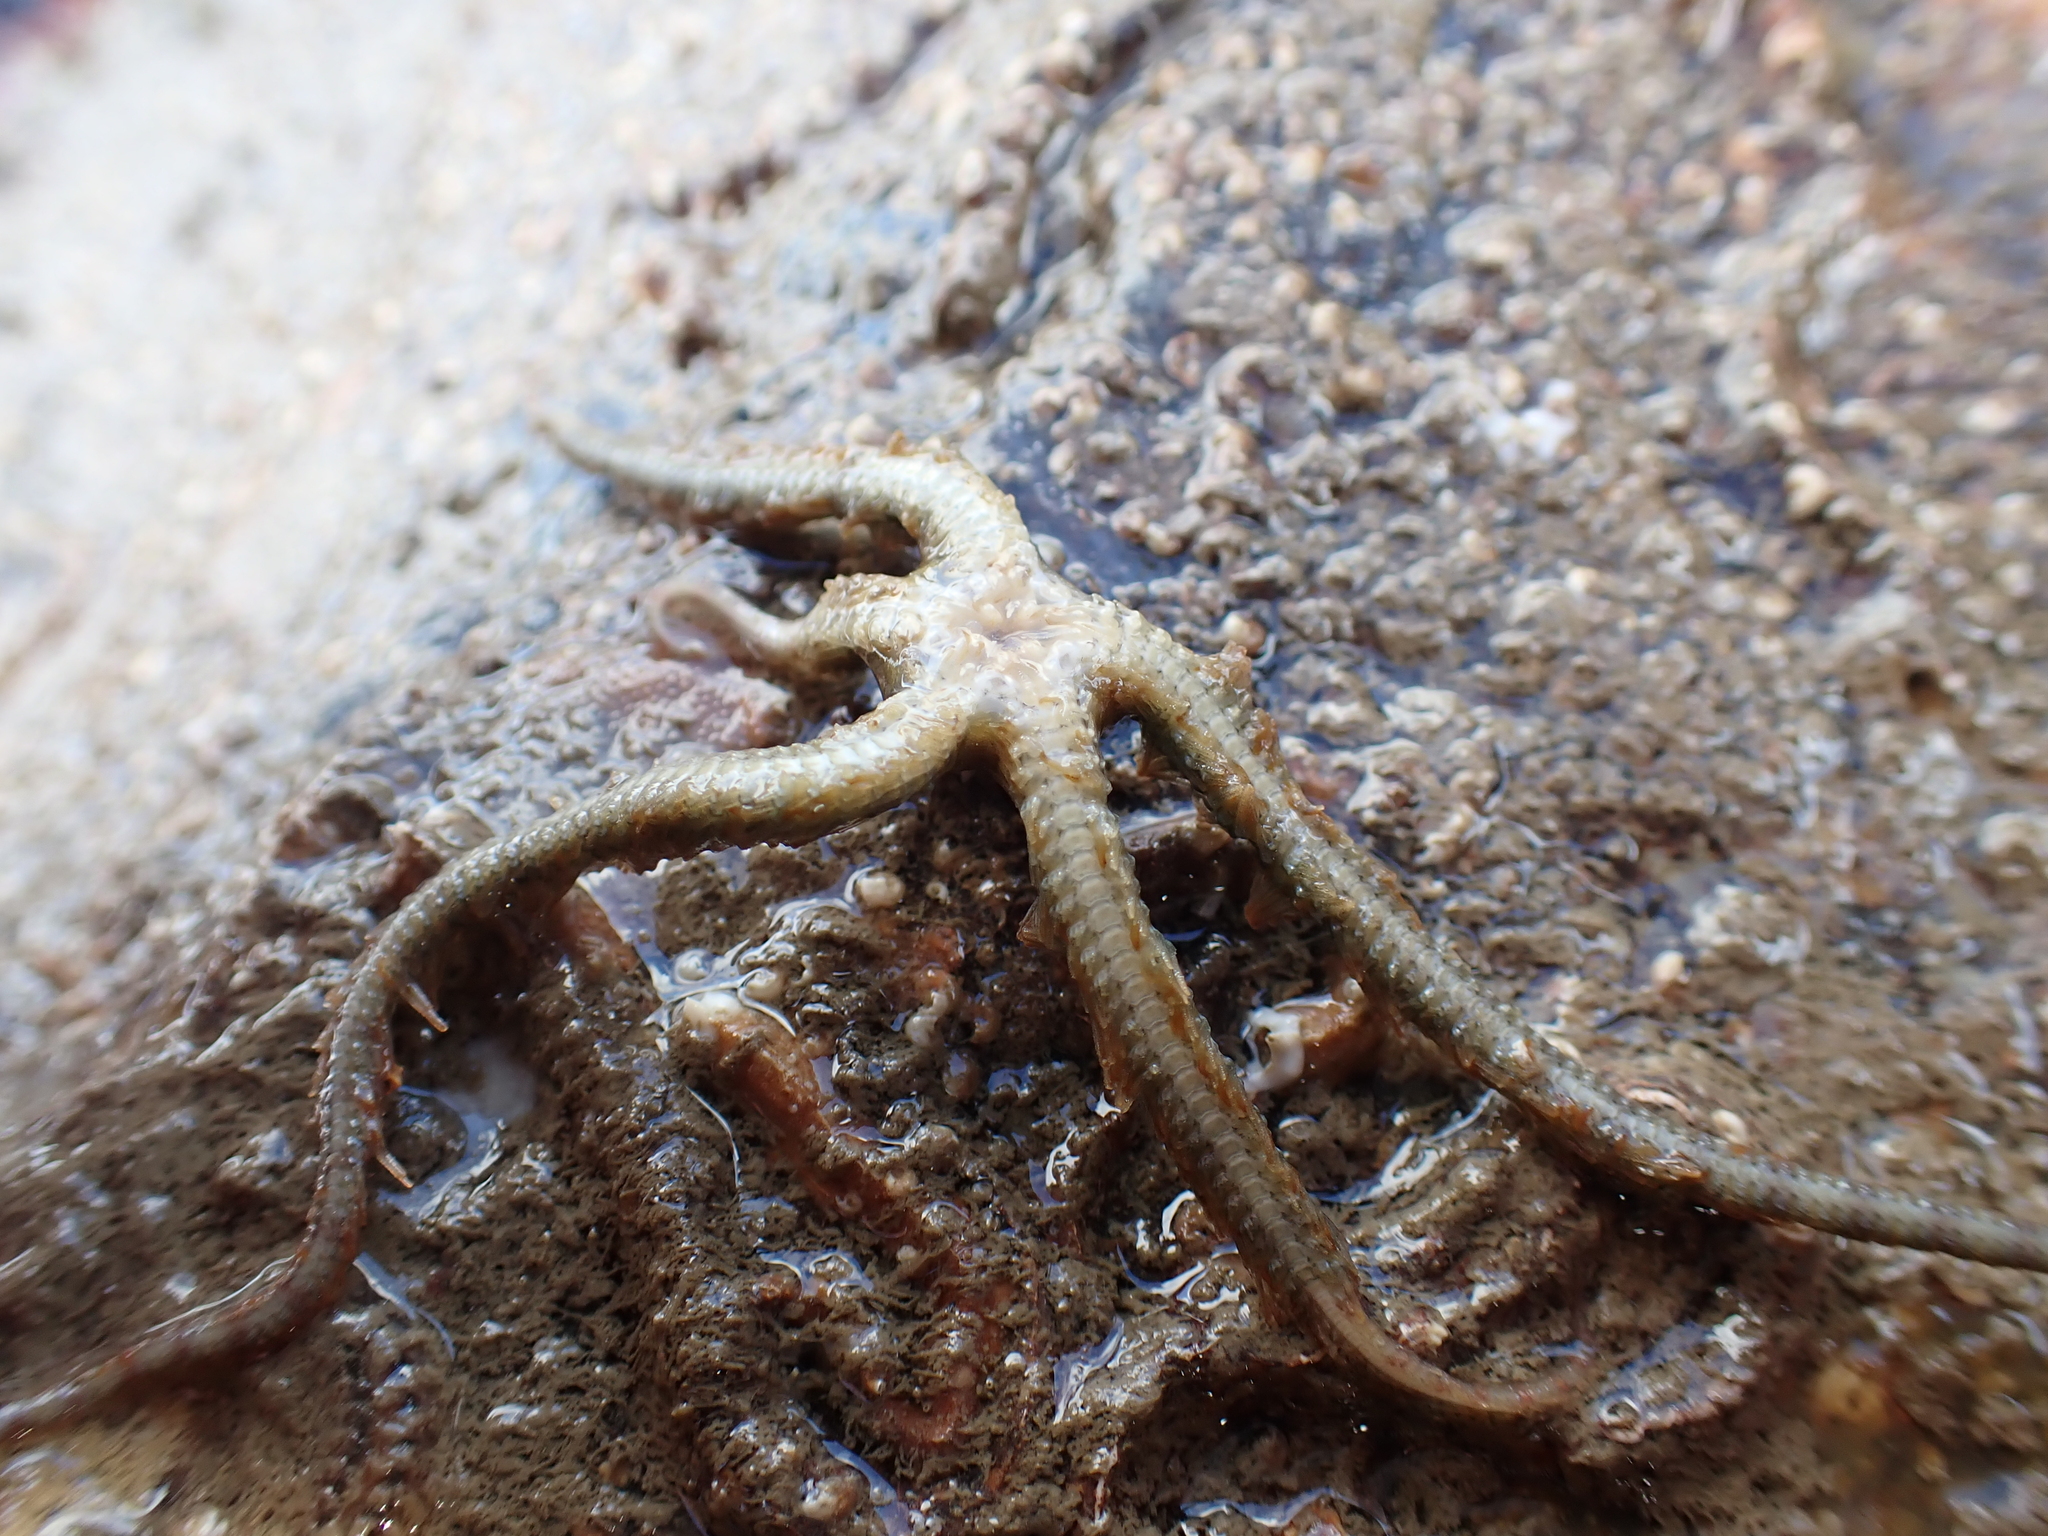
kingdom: Animalia
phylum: Echinodermata
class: Ophiuroidea
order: Amphilepidida
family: Ophiotrichidae
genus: Ophiothrix
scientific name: Ophiothrix fragilis
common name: Common brittlestar
